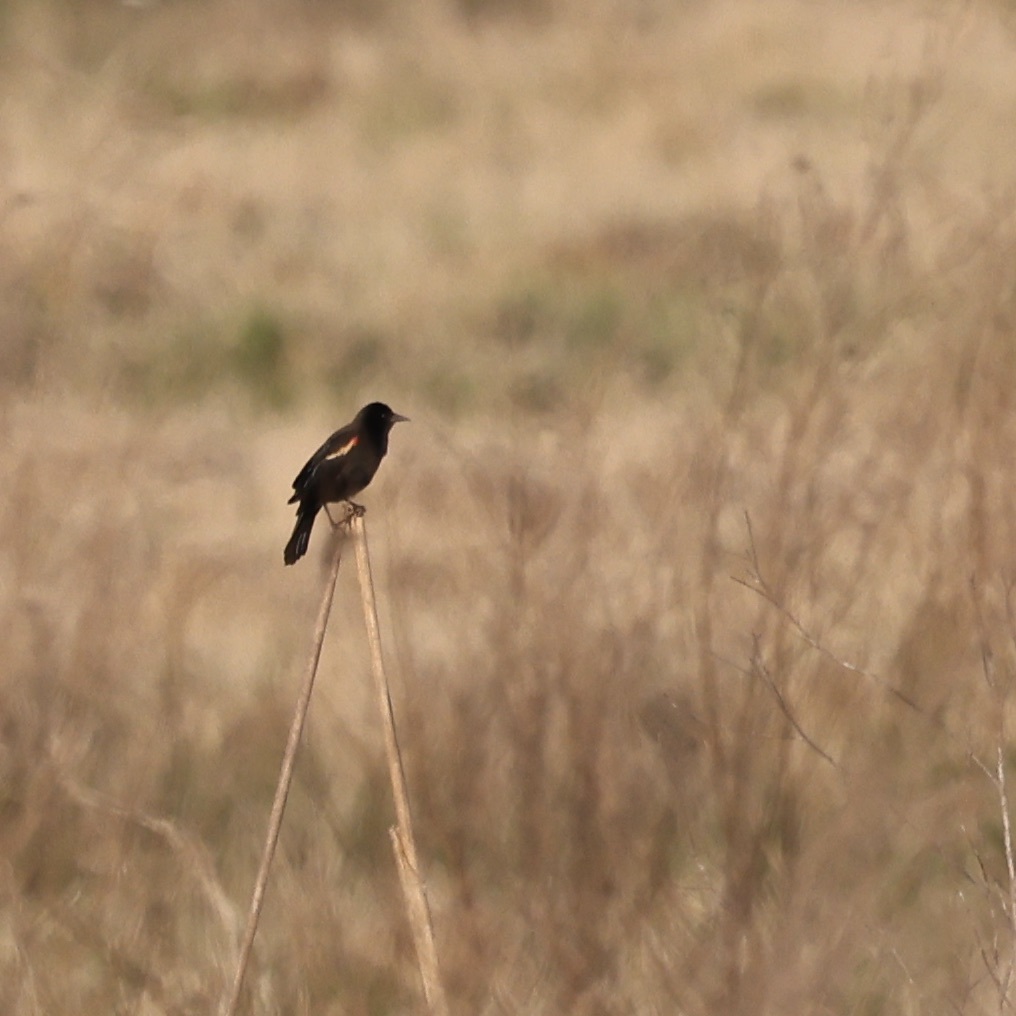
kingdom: Animalia
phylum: Chordata
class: Aves
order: Passeriformes
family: Icteridae
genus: Agelaius
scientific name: Agelaius phoeniceus
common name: Red-winged blackbird
